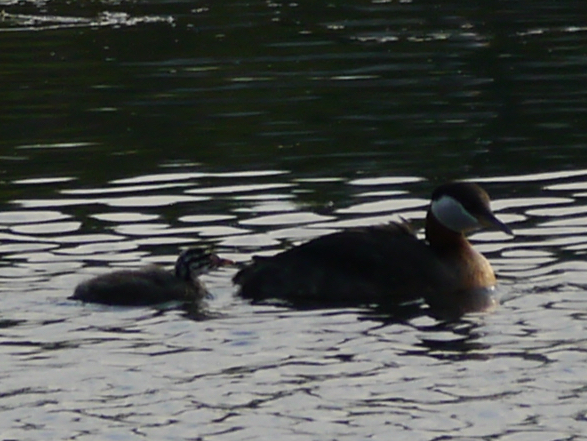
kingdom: Animalia
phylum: Chordata
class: Aves
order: Podicipediformes
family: Podicipedidae
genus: Podiceps
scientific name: Podiceps grisegena
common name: Red-necked grebe
